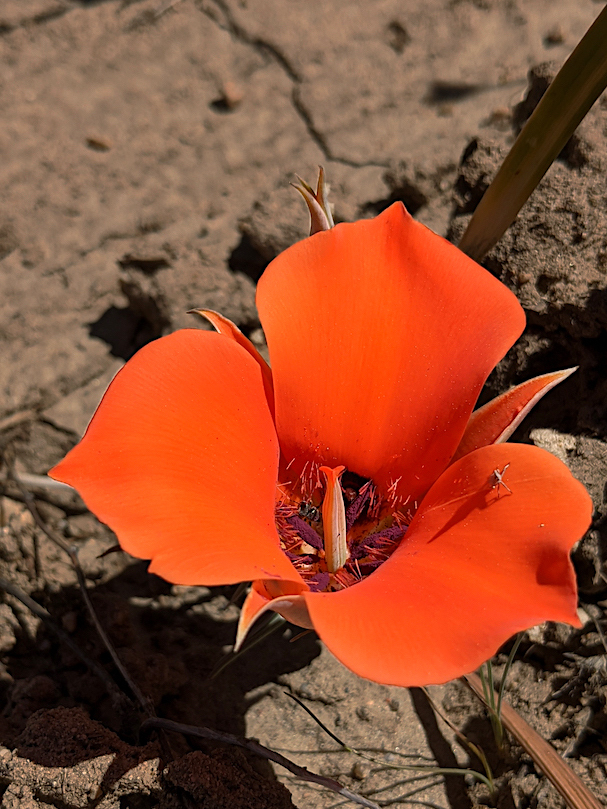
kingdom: Plantae
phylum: Tracheophyta
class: Liliopsida
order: Liliales
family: Liliaceae
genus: Calochortus
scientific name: Calochortus kennedyi
